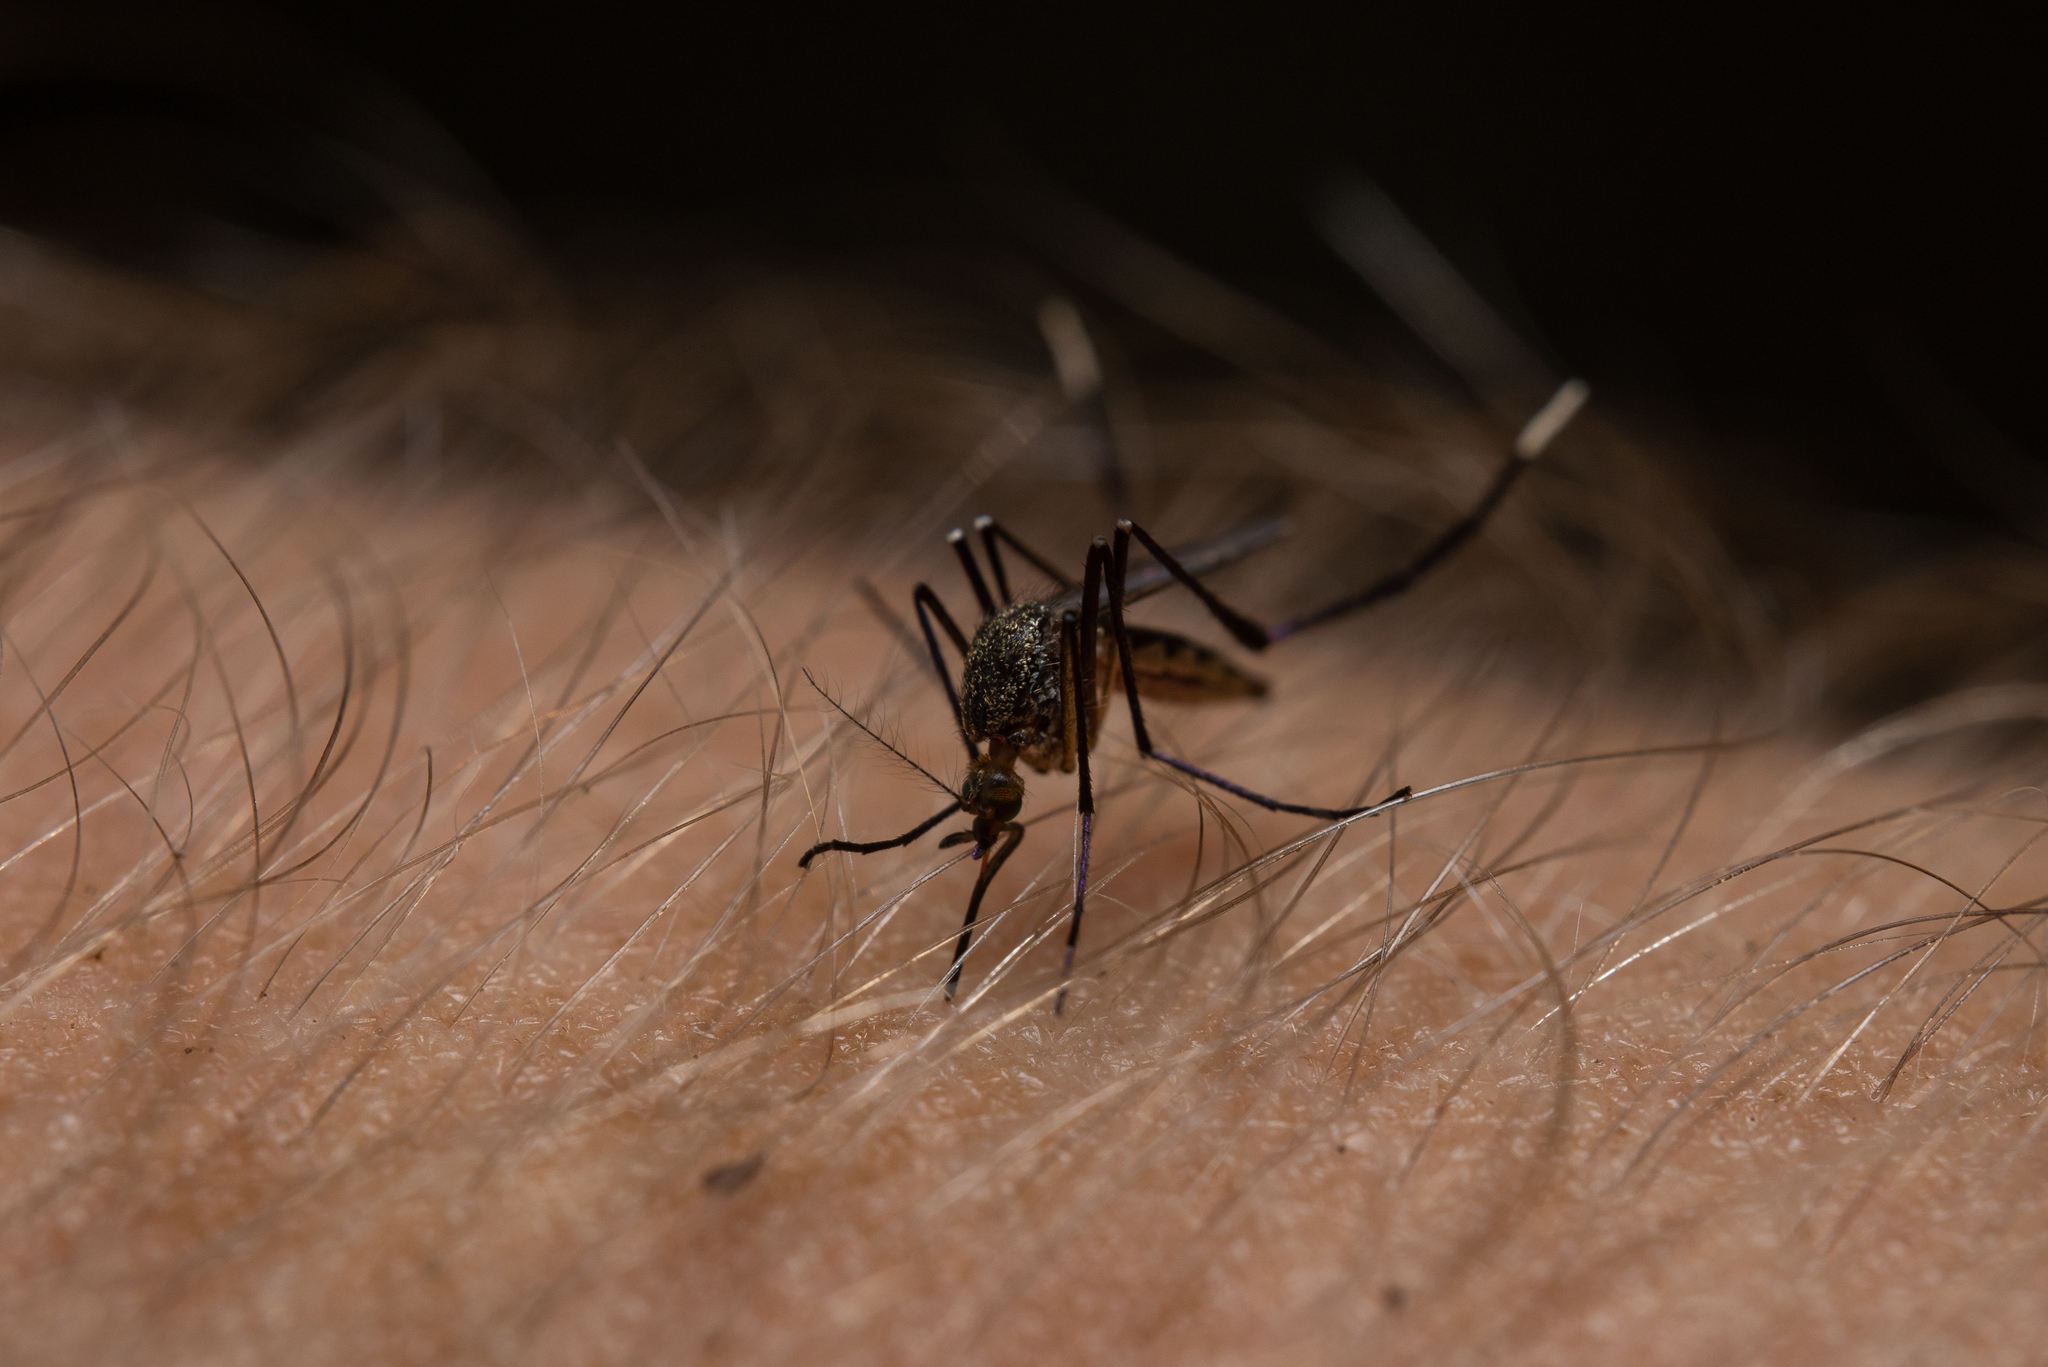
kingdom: Animalia
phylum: Arthropoda
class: Insecta
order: Diptera
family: Culicidae
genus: Psorophora
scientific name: Psorophora ferox
